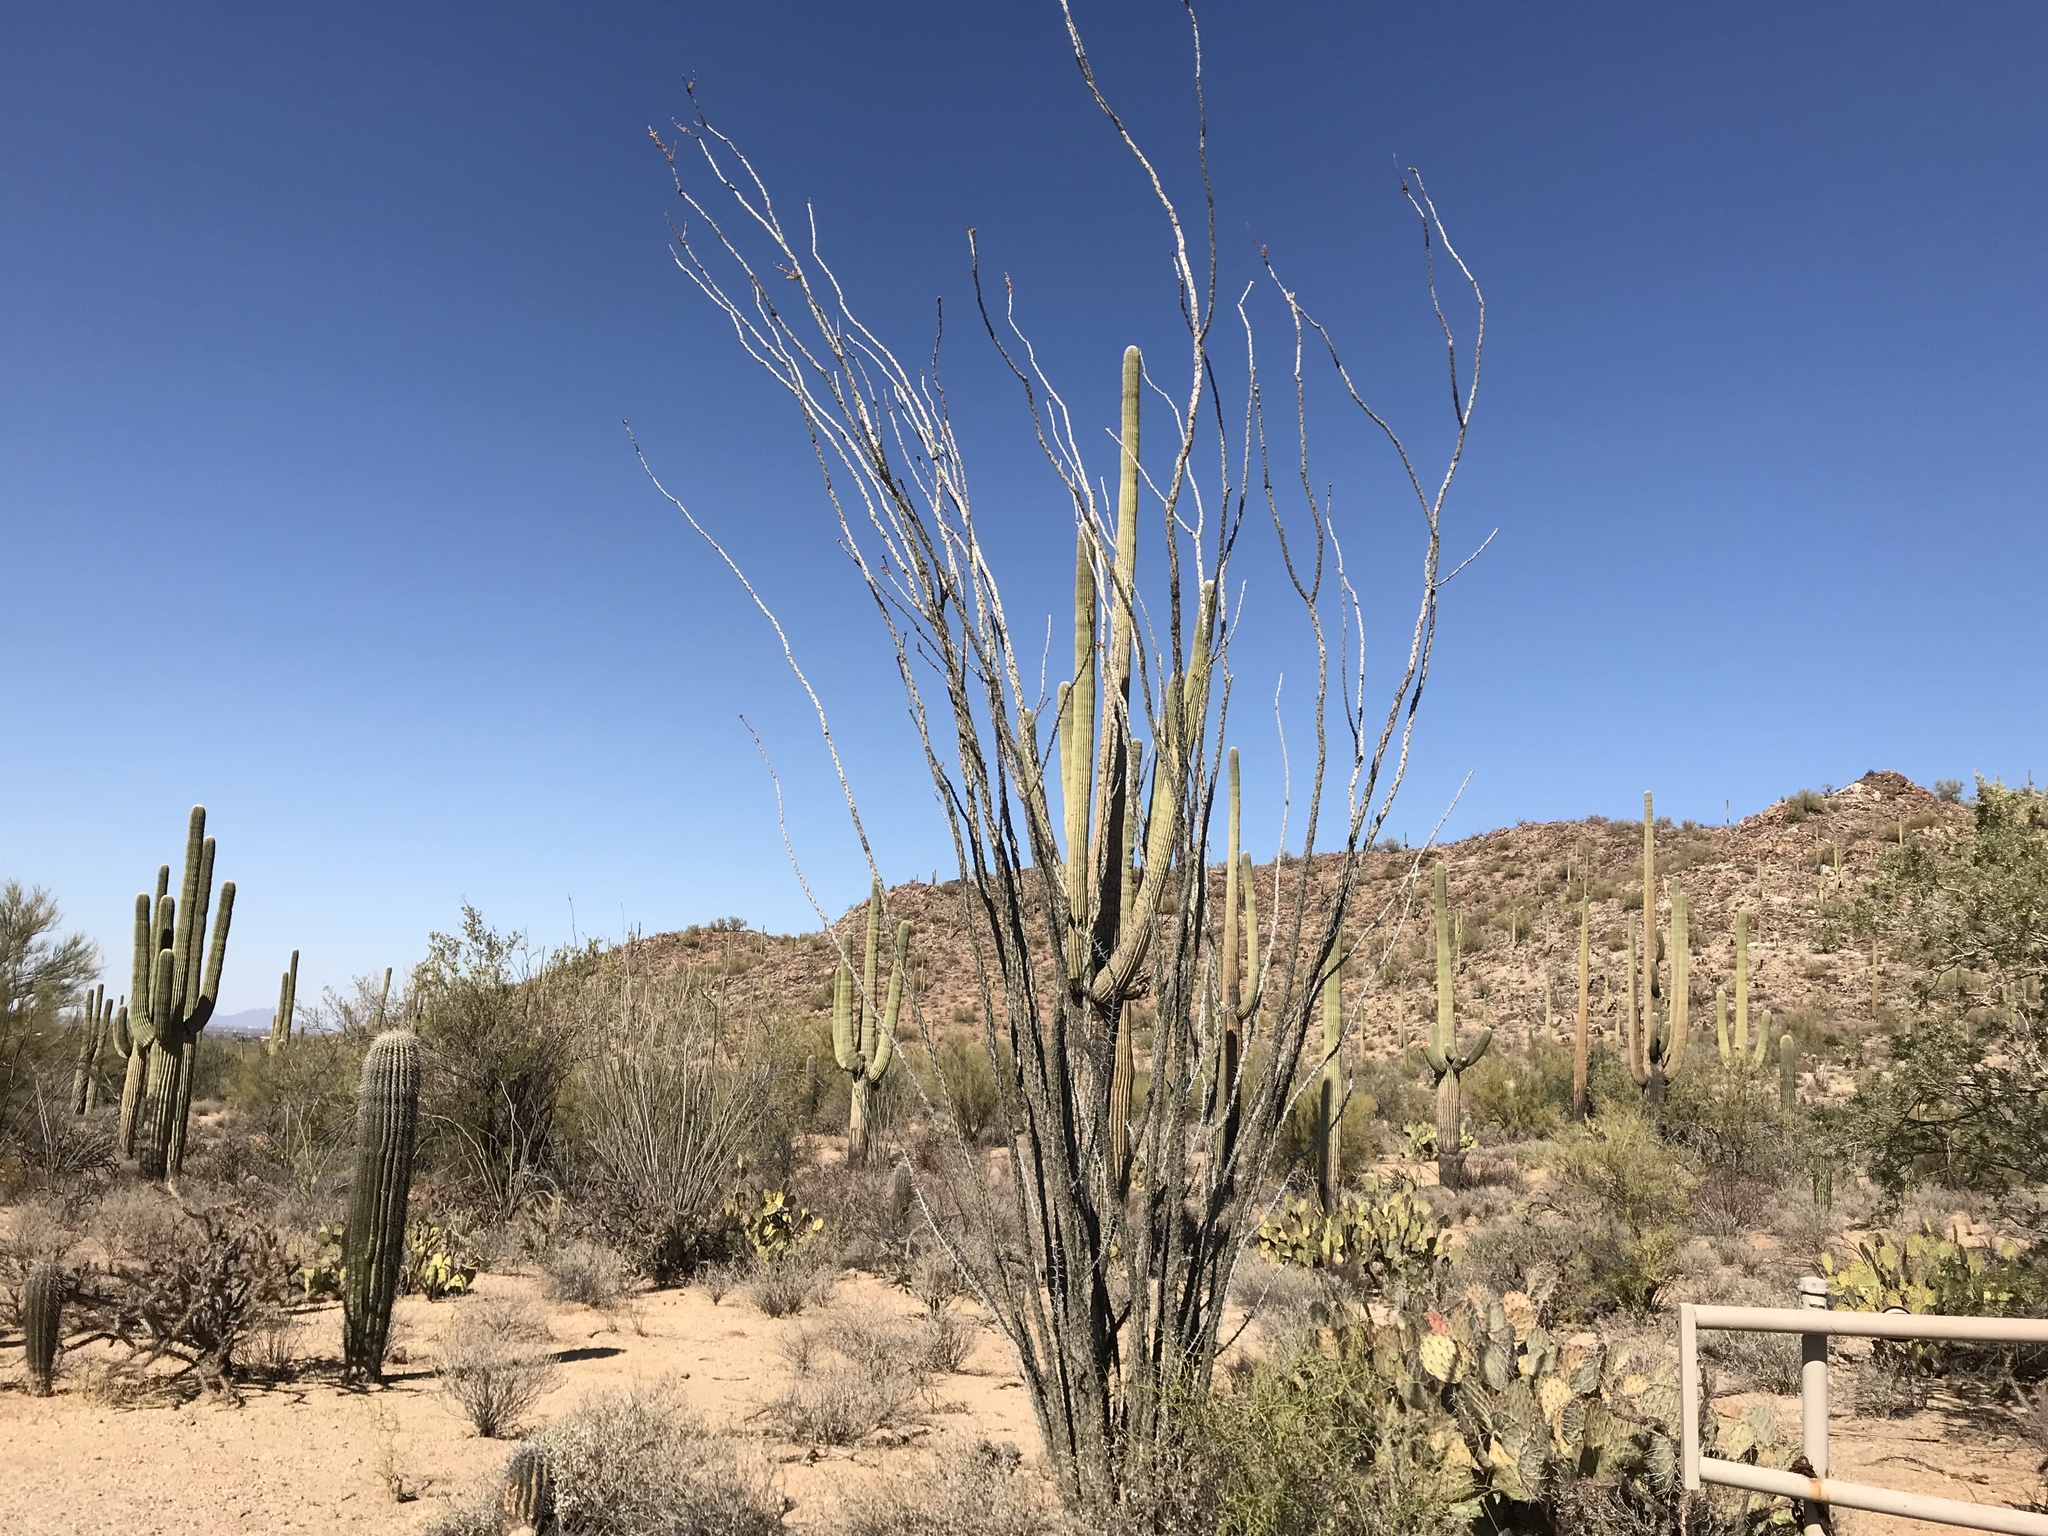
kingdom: Plantae
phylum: Tracheophyta
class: Magnoliopsida
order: Ericales
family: Fouquieriaceae
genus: Fouquieria
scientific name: Fouquieria splendens
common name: Vine-cactus
